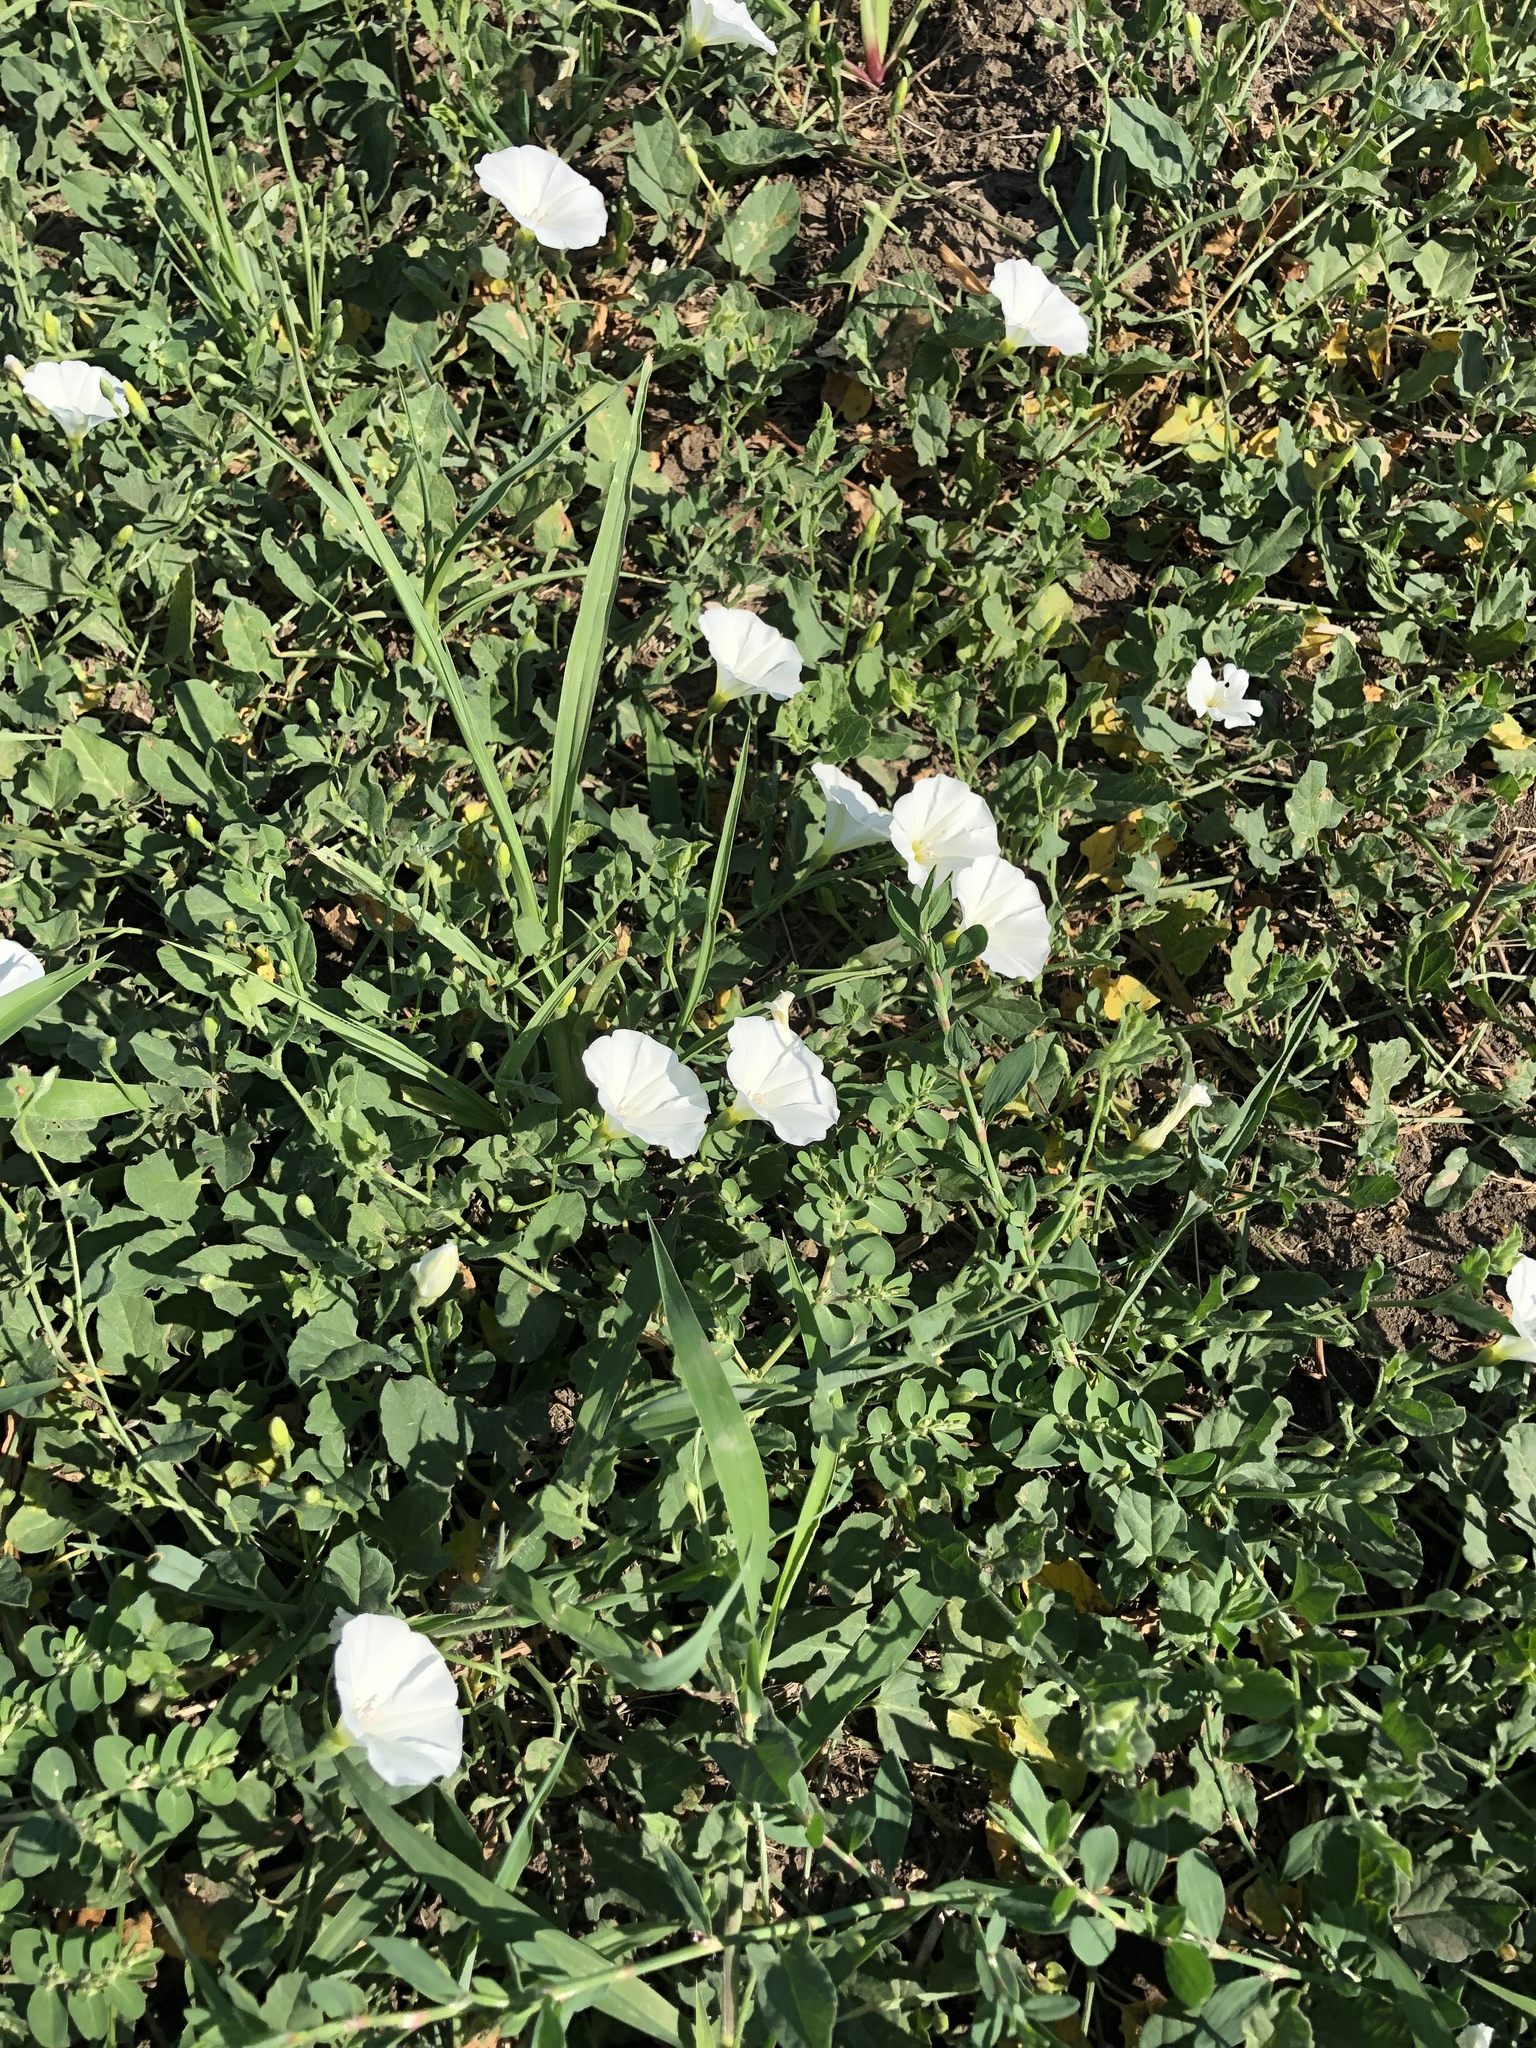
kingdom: Plantae
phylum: Tracheophyta
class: Magnoliopsida
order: Solanales
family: Convolvulaceae
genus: Convolvulus
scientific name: Convolvulus arvensis
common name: Field bindweed
